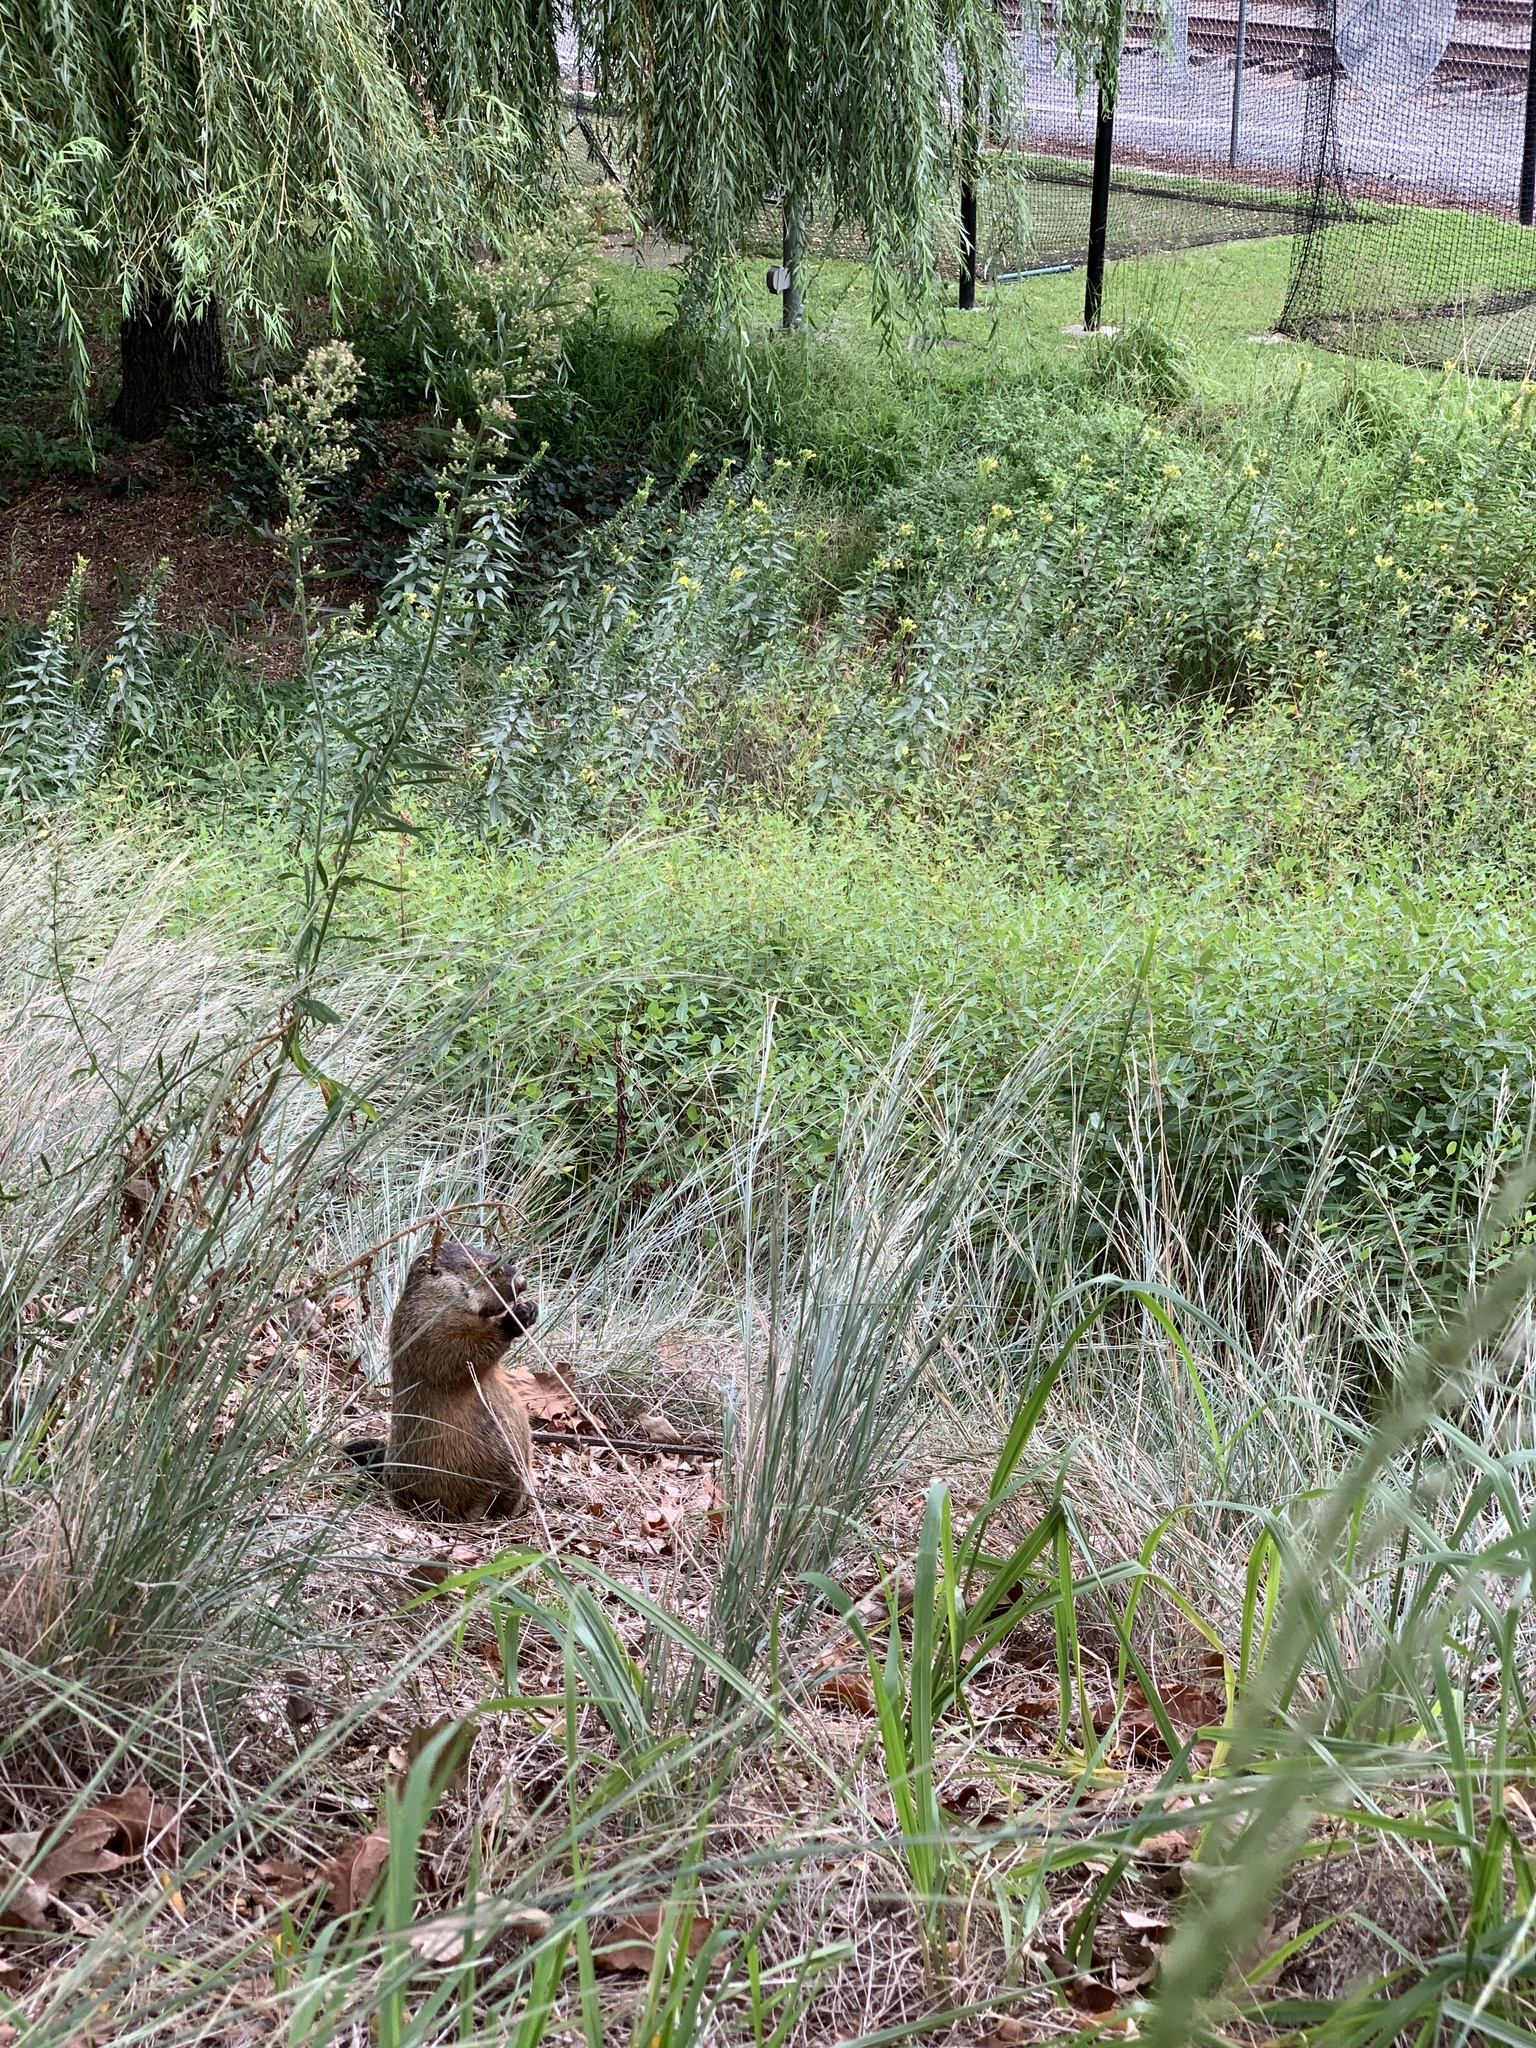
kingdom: Animalia
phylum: Chordata
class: Mammalia
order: Rodentia
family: Sciuridae
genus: Marmota
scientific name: Marmota monax
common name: Groundhog
